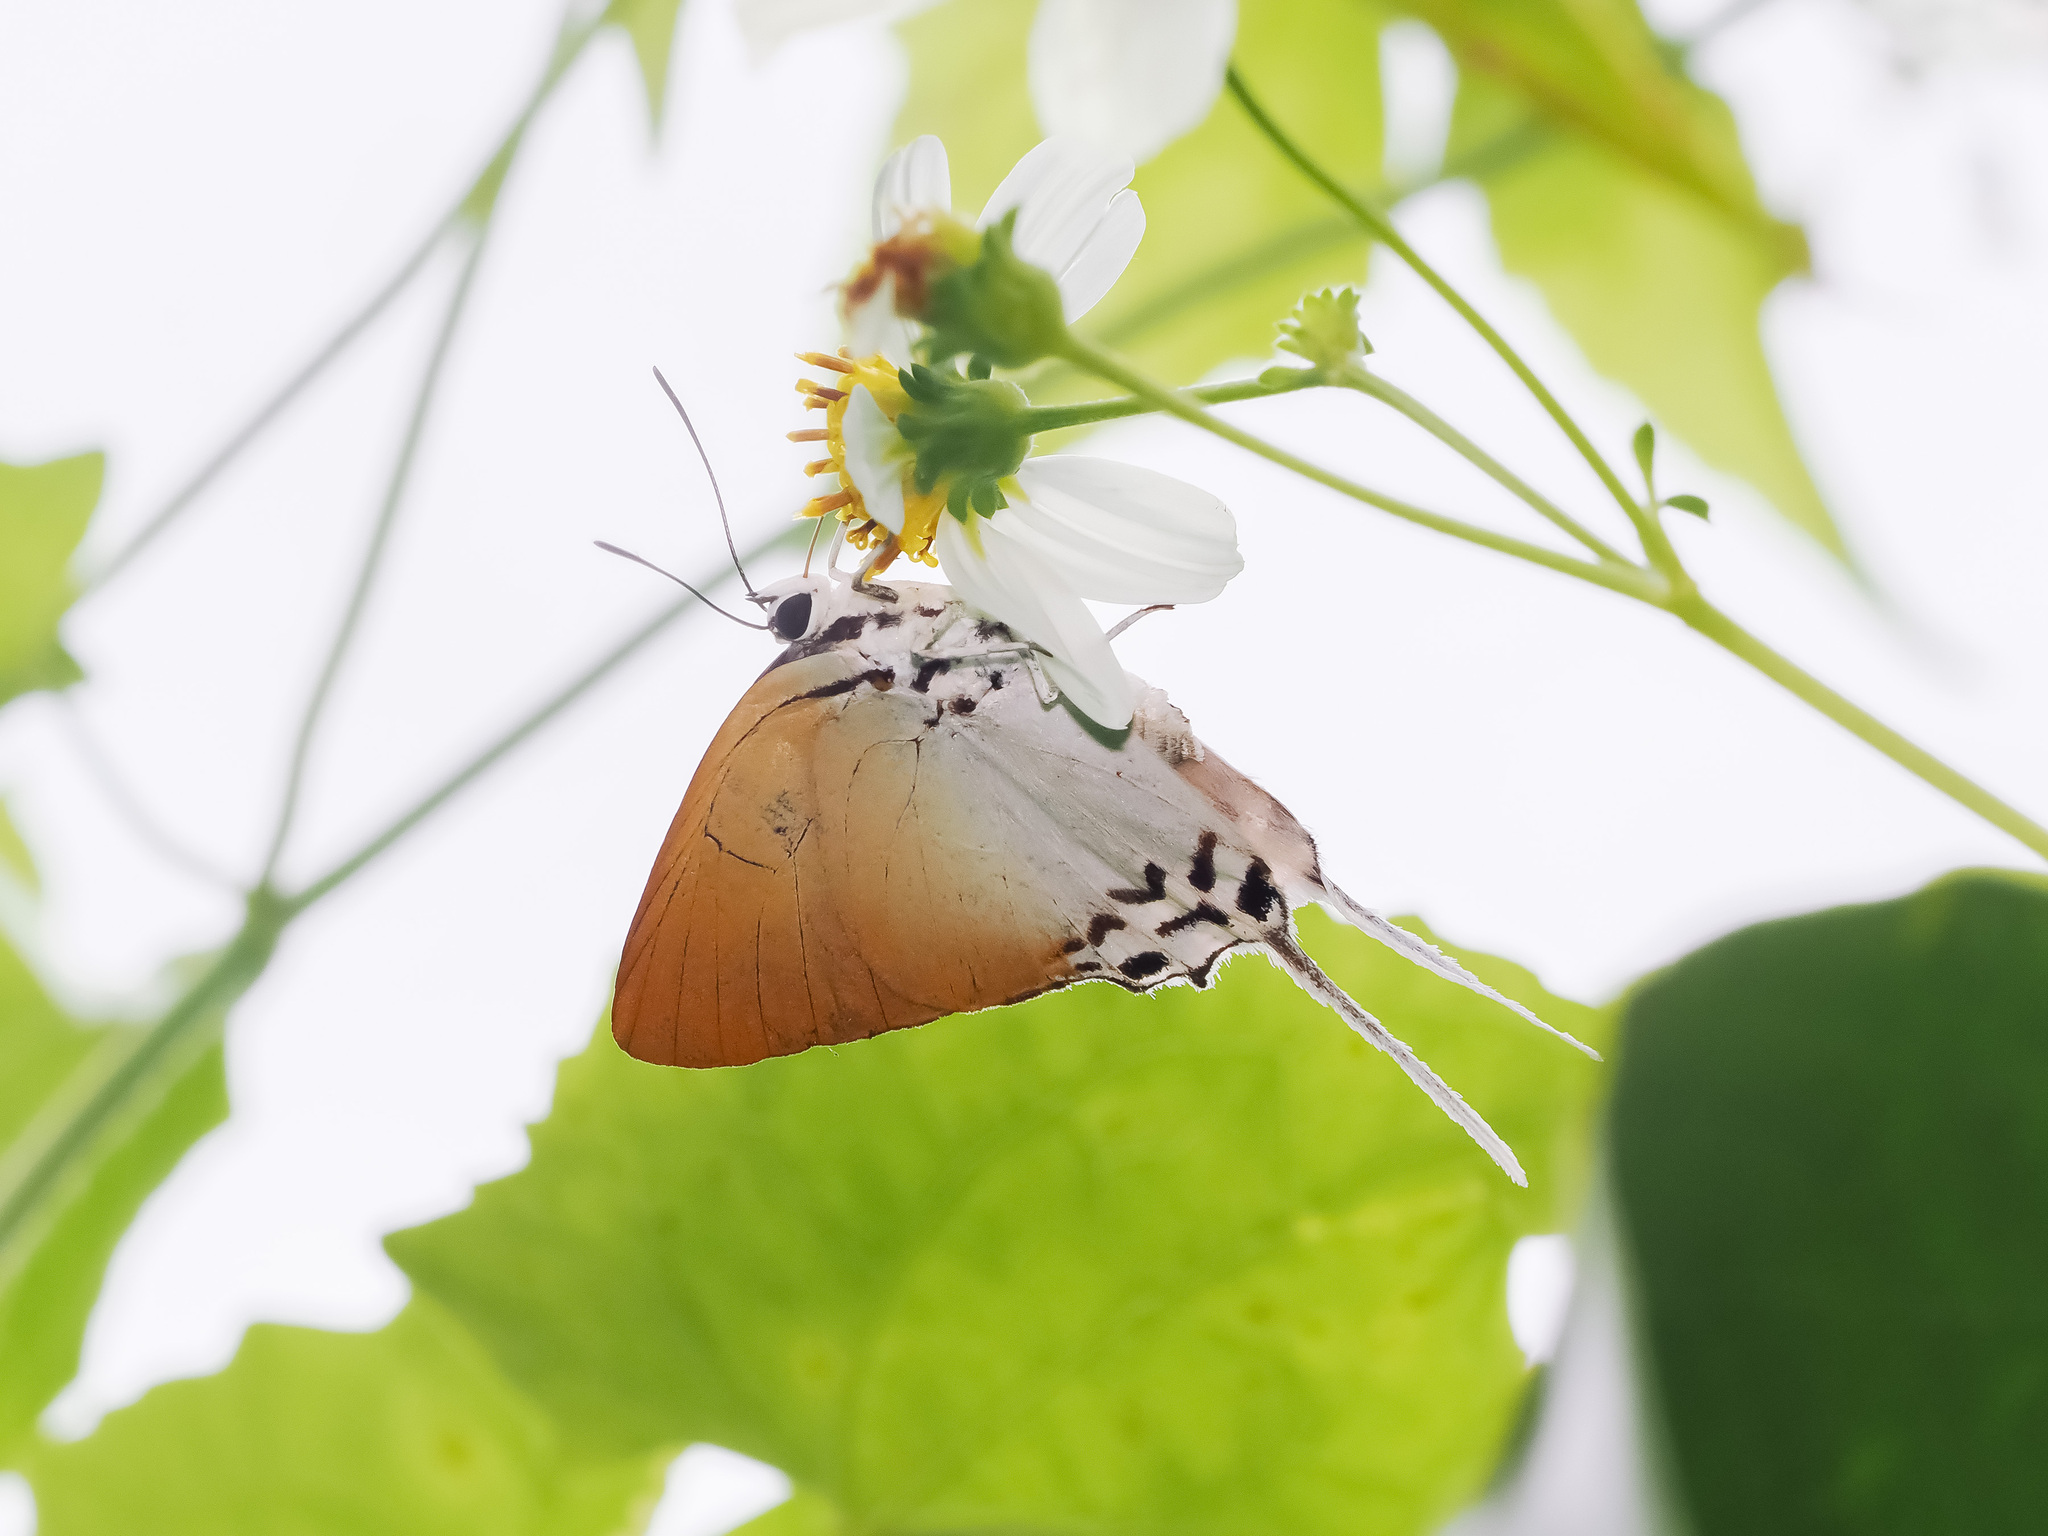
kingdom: Animalia
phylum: Arthropoda
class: Insecta
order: Lepidoptera
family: Lycaenidae
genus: Jacoona
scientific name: Jacoona anasuja
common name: Great imperial
